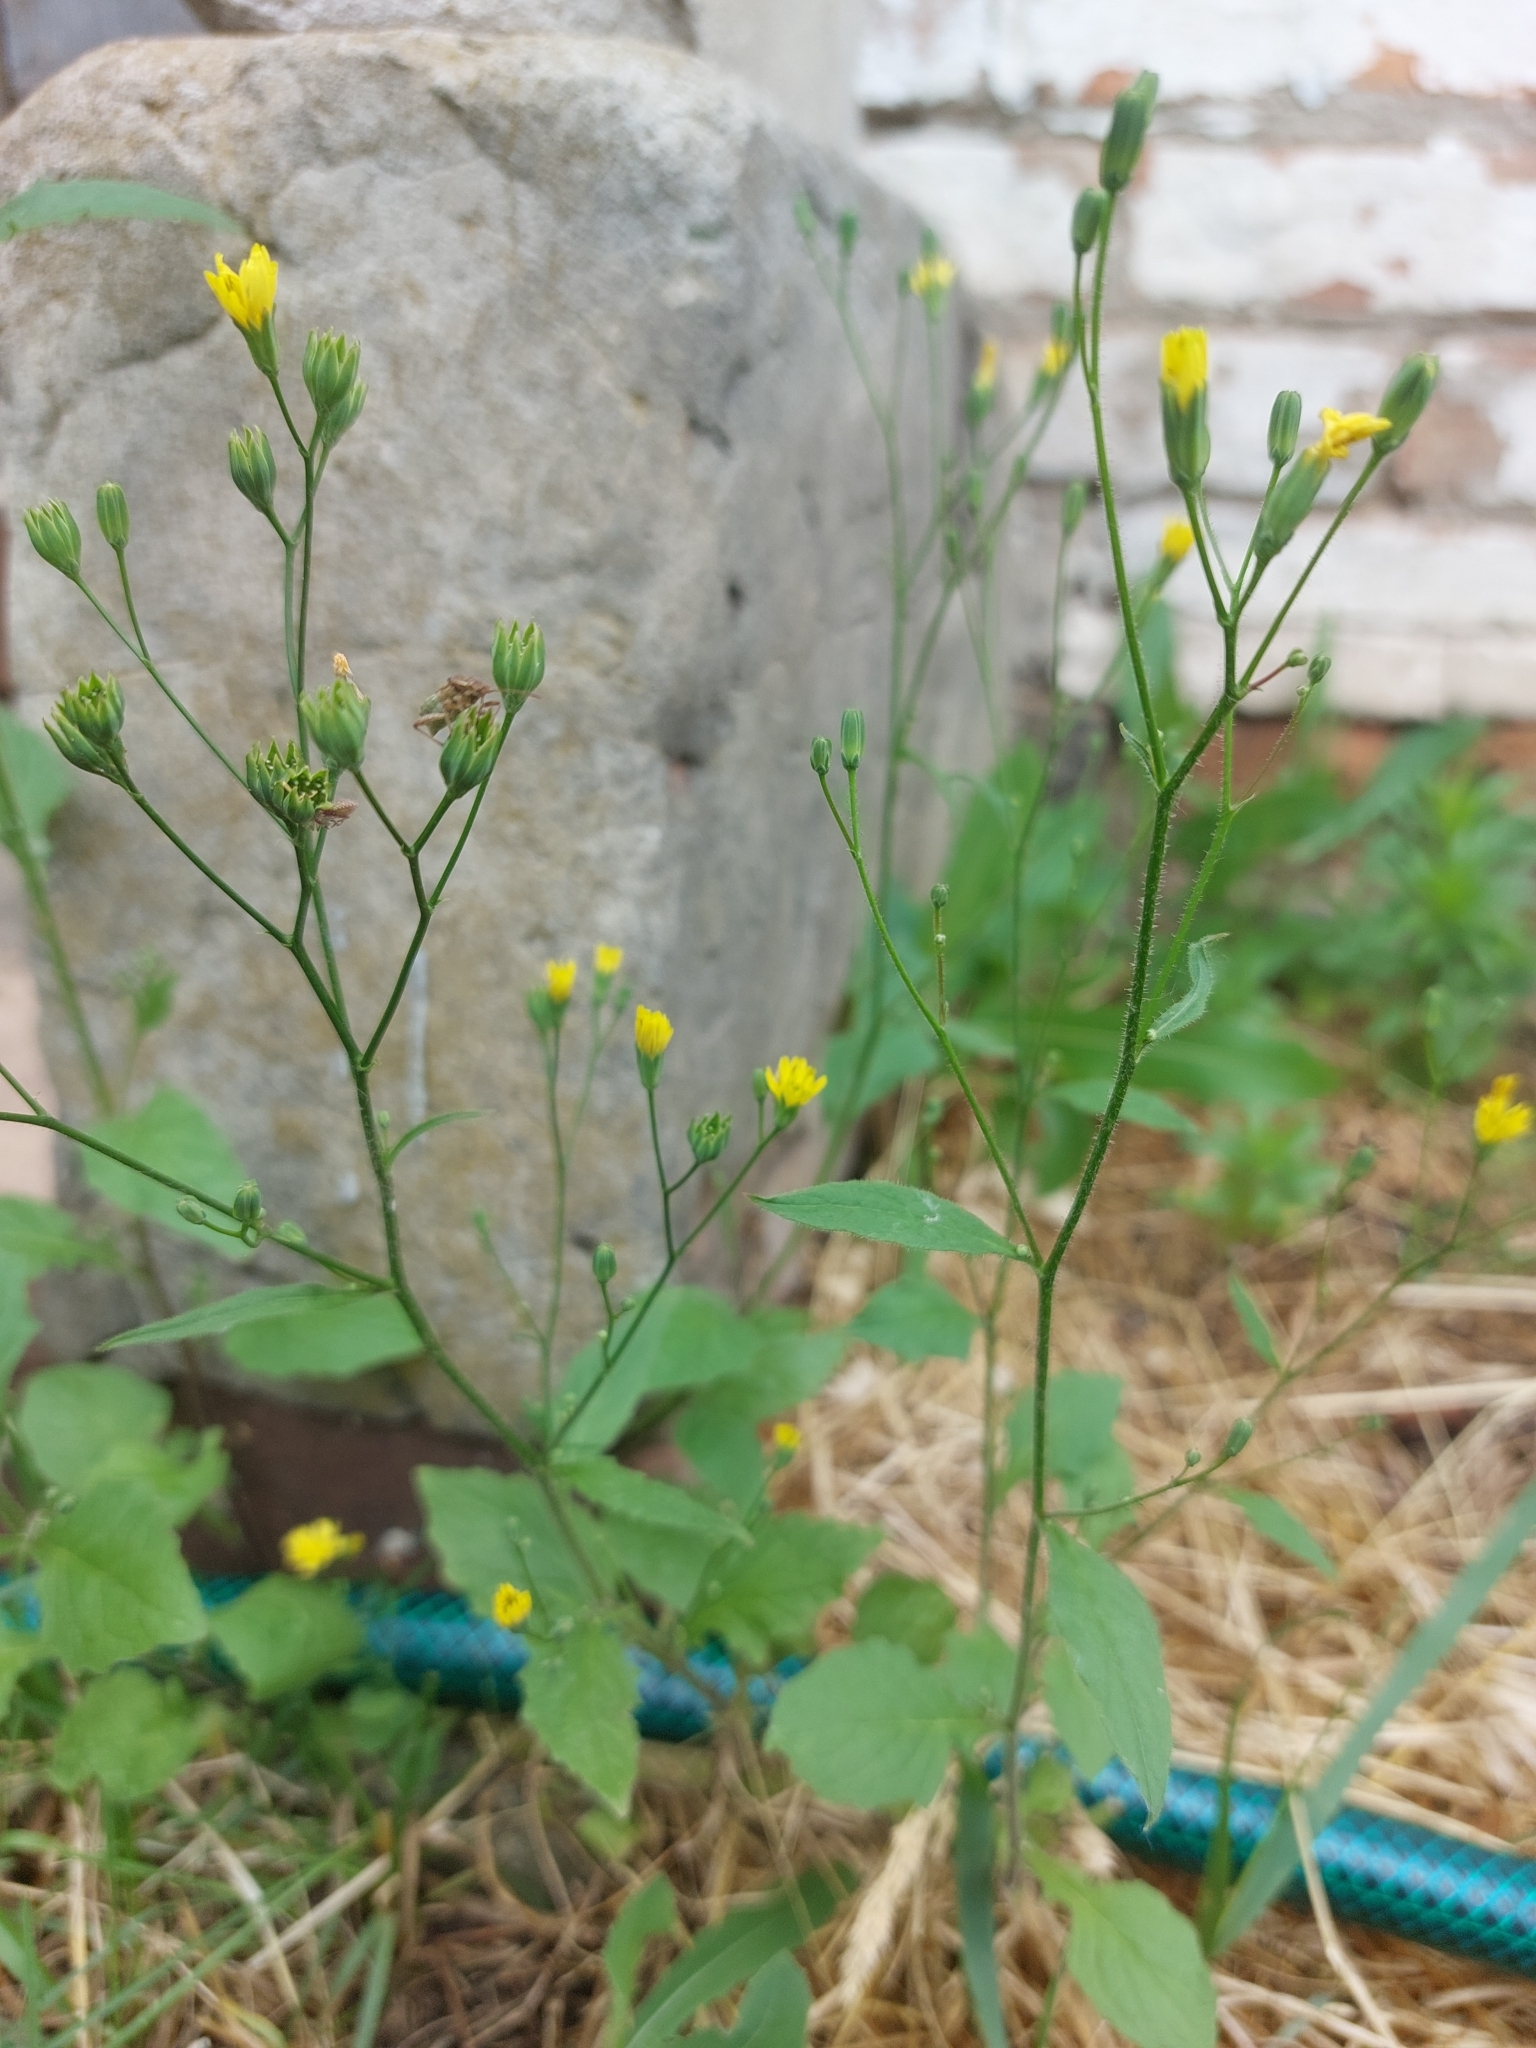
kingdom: Plantae
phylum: Tracheophyta
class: Magnoliopsida
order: Asterales
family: Asteraceae
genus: Lapsana
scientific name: Lapsana communis
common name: Nipplewort
